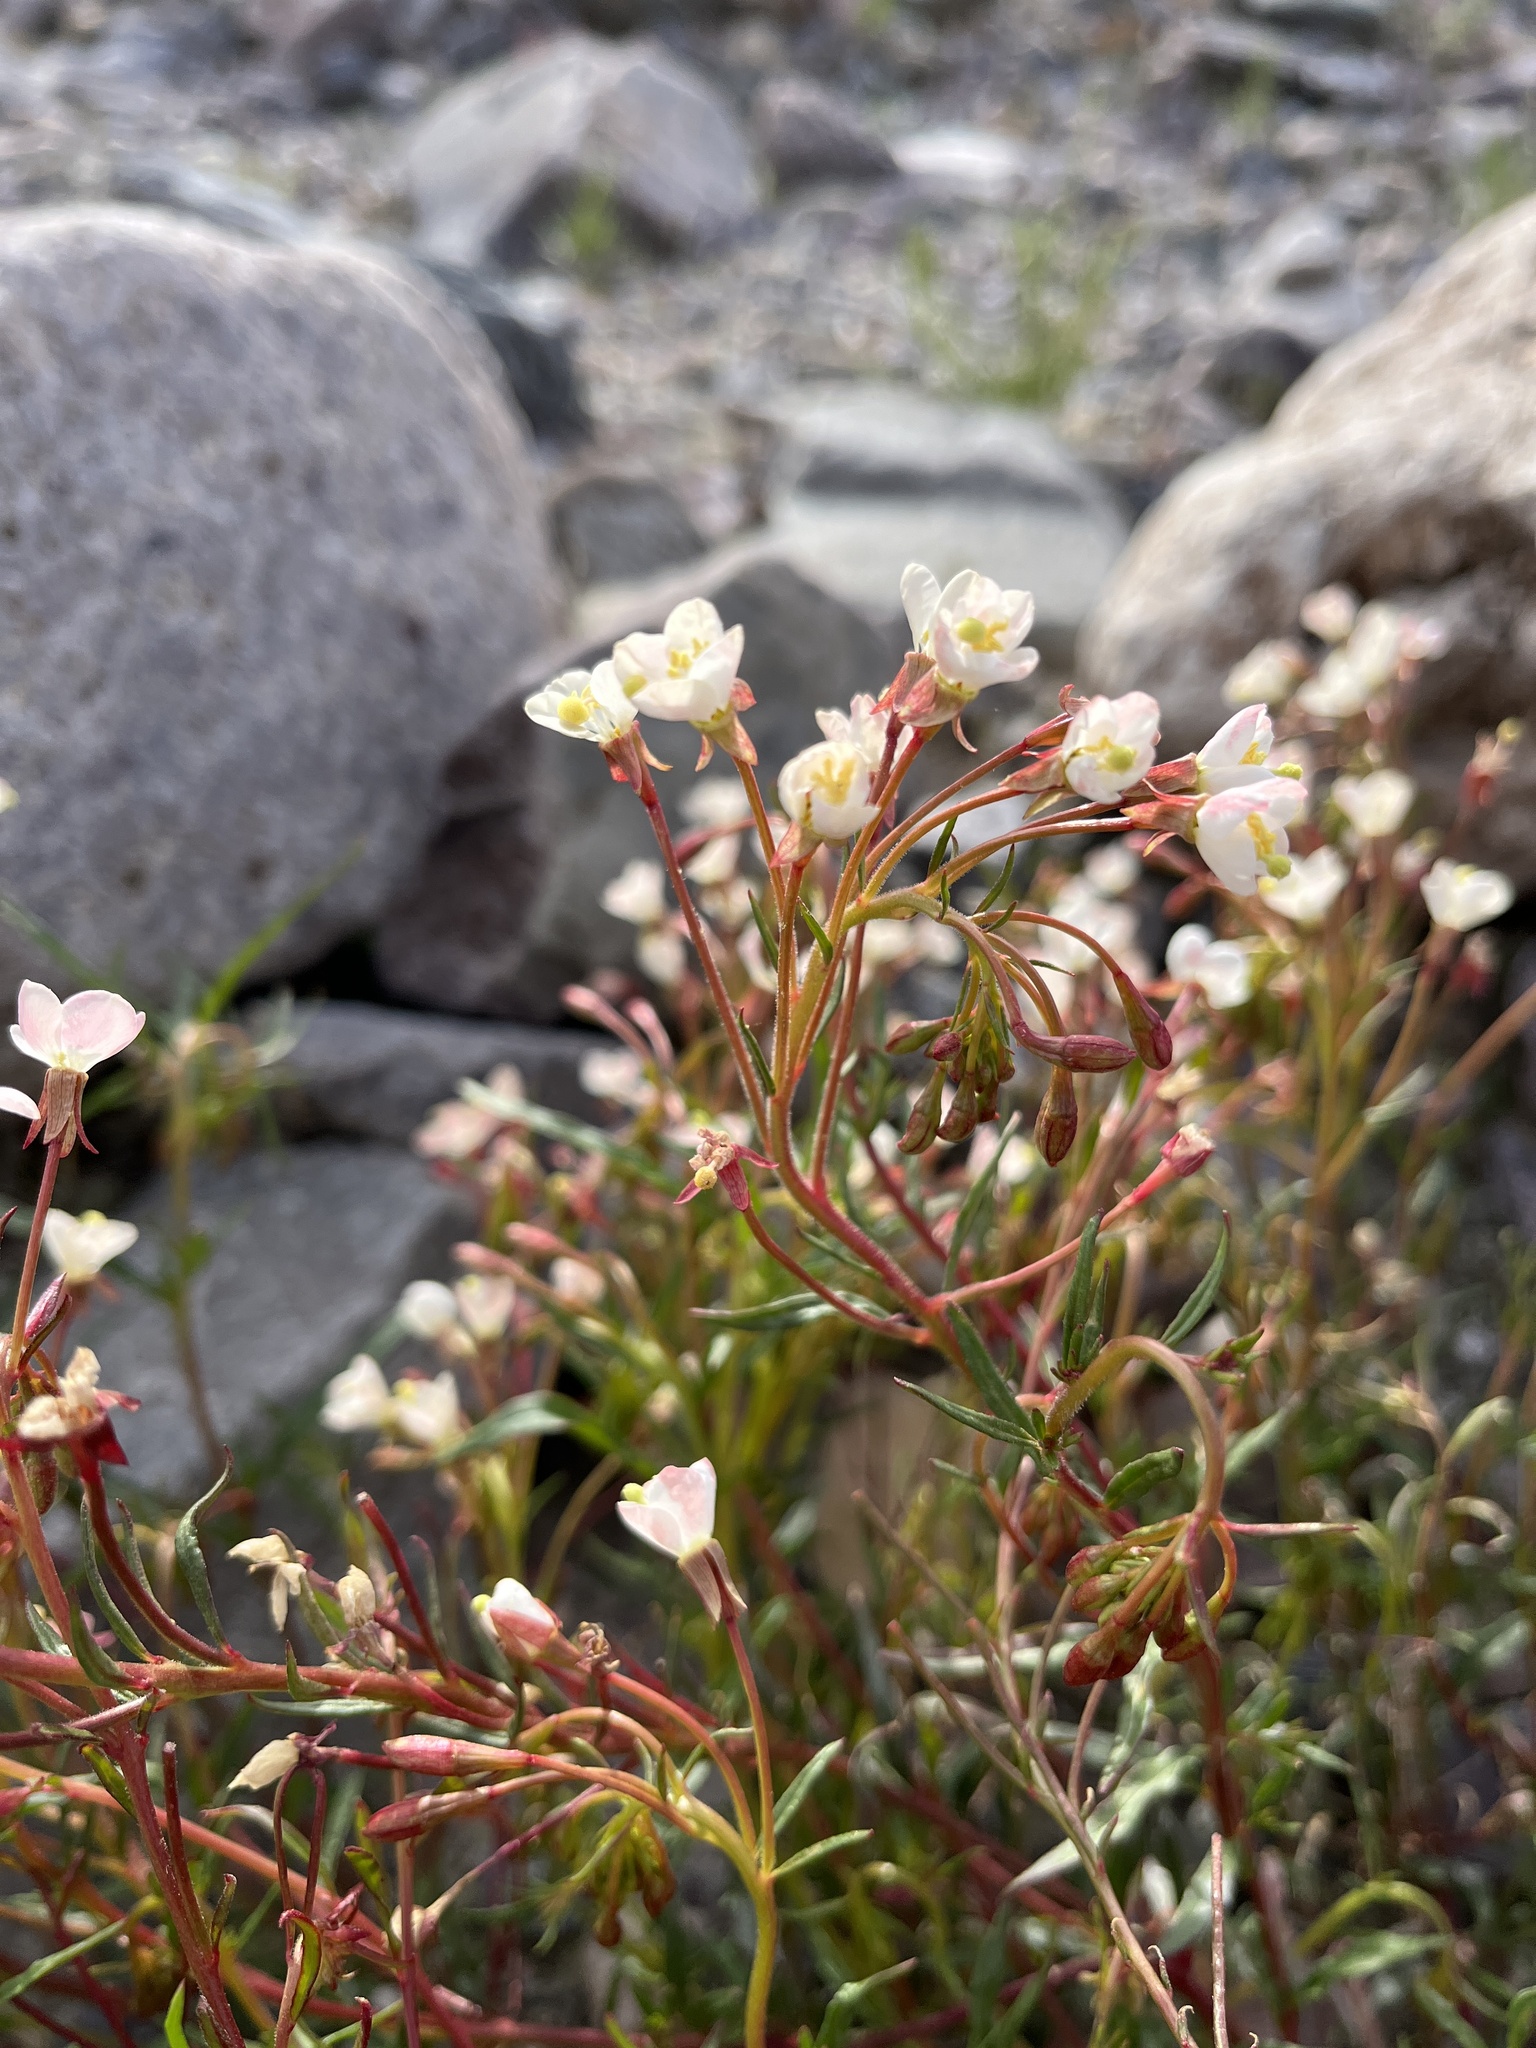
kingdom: Plantae
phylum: Tracheophyta
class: Magnoliopsida
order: Myrtales
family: Onagraceae
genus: Eremothera
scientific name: Eremothera refracta
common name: Narrowleaf suncup
